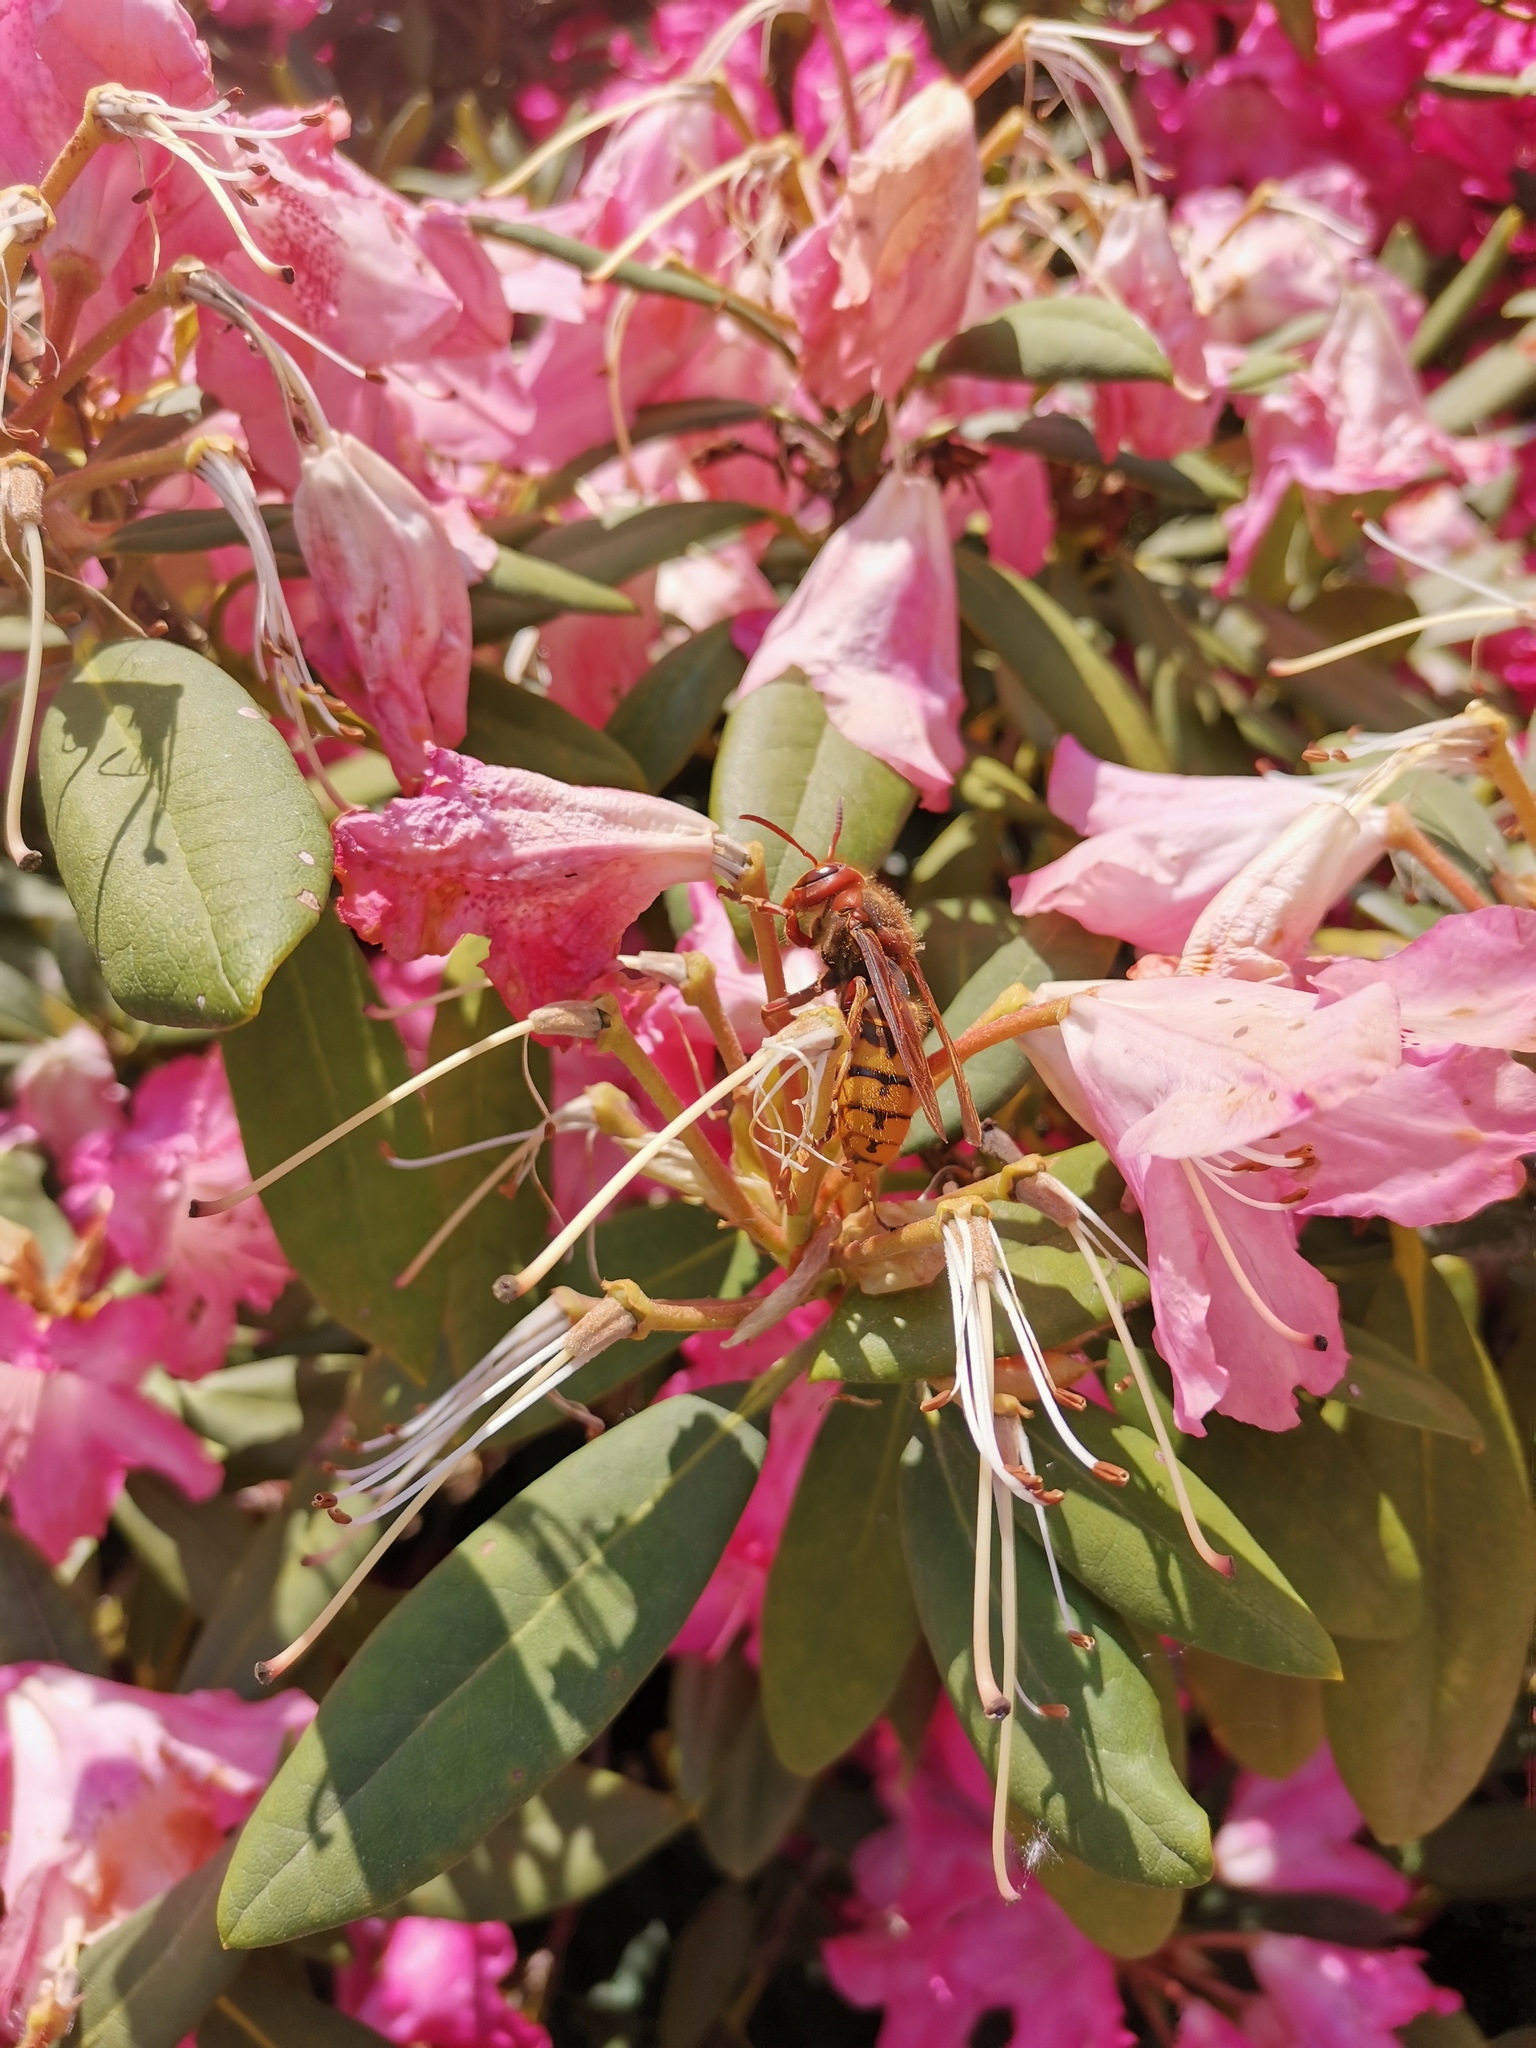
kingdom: Animalia
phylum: Arthropoda
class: Insecta
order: Hymenoptera
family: Vespidae
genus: Vespa
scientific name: Vespa crabro
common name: Hornet
